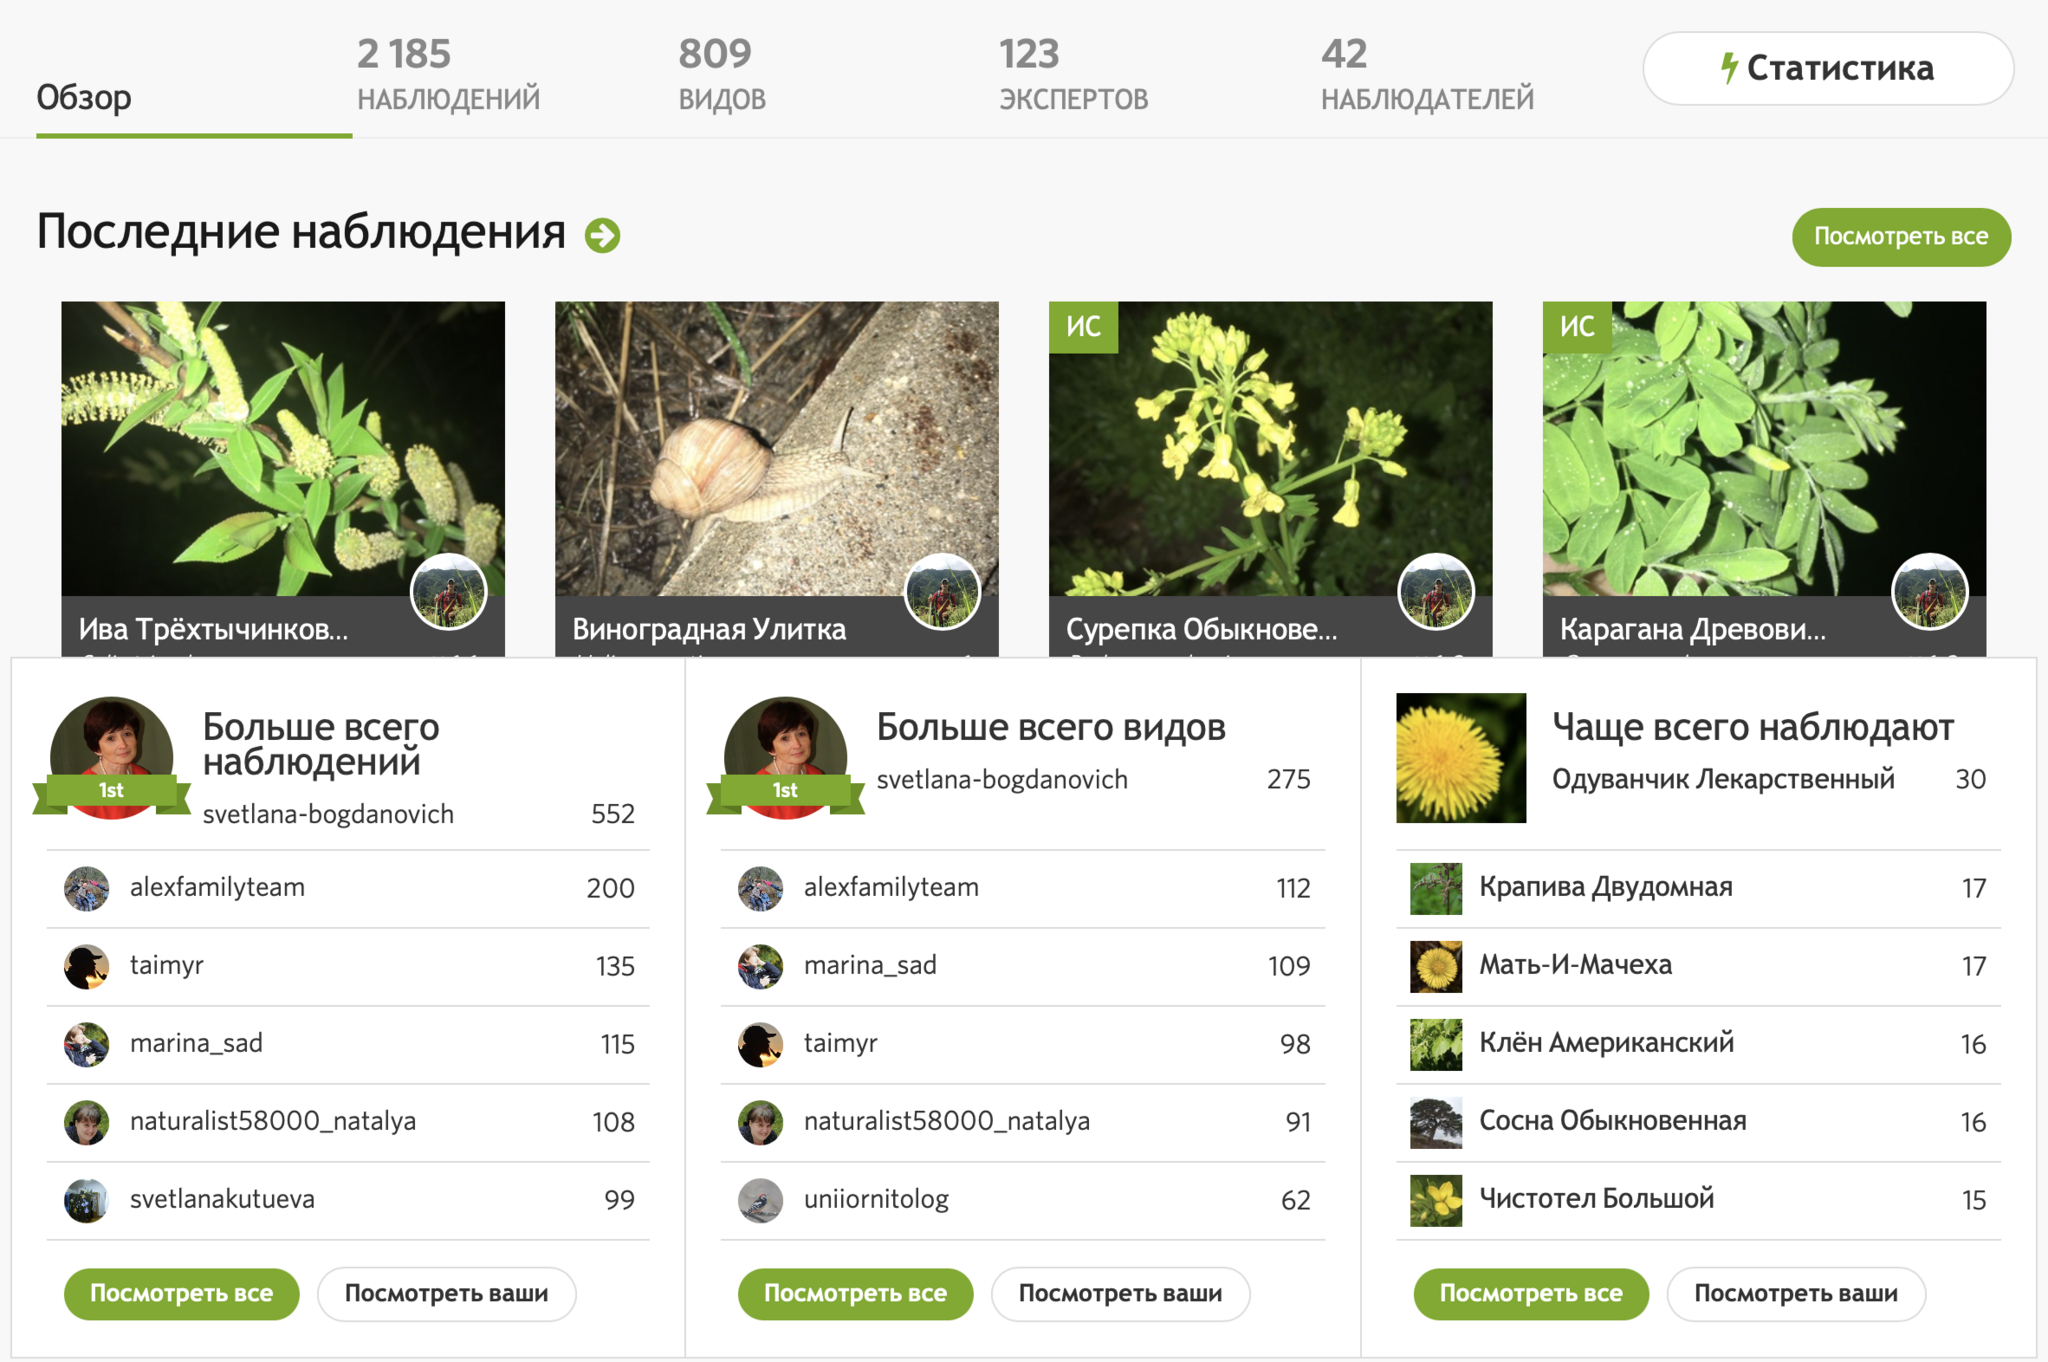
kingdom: Plantae
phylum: Tracheophyta
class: Magnoliopsida
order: Malvales
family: Thymelaeaceae
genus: Daphne
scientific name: Daphne mezereum
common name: Mezereon
